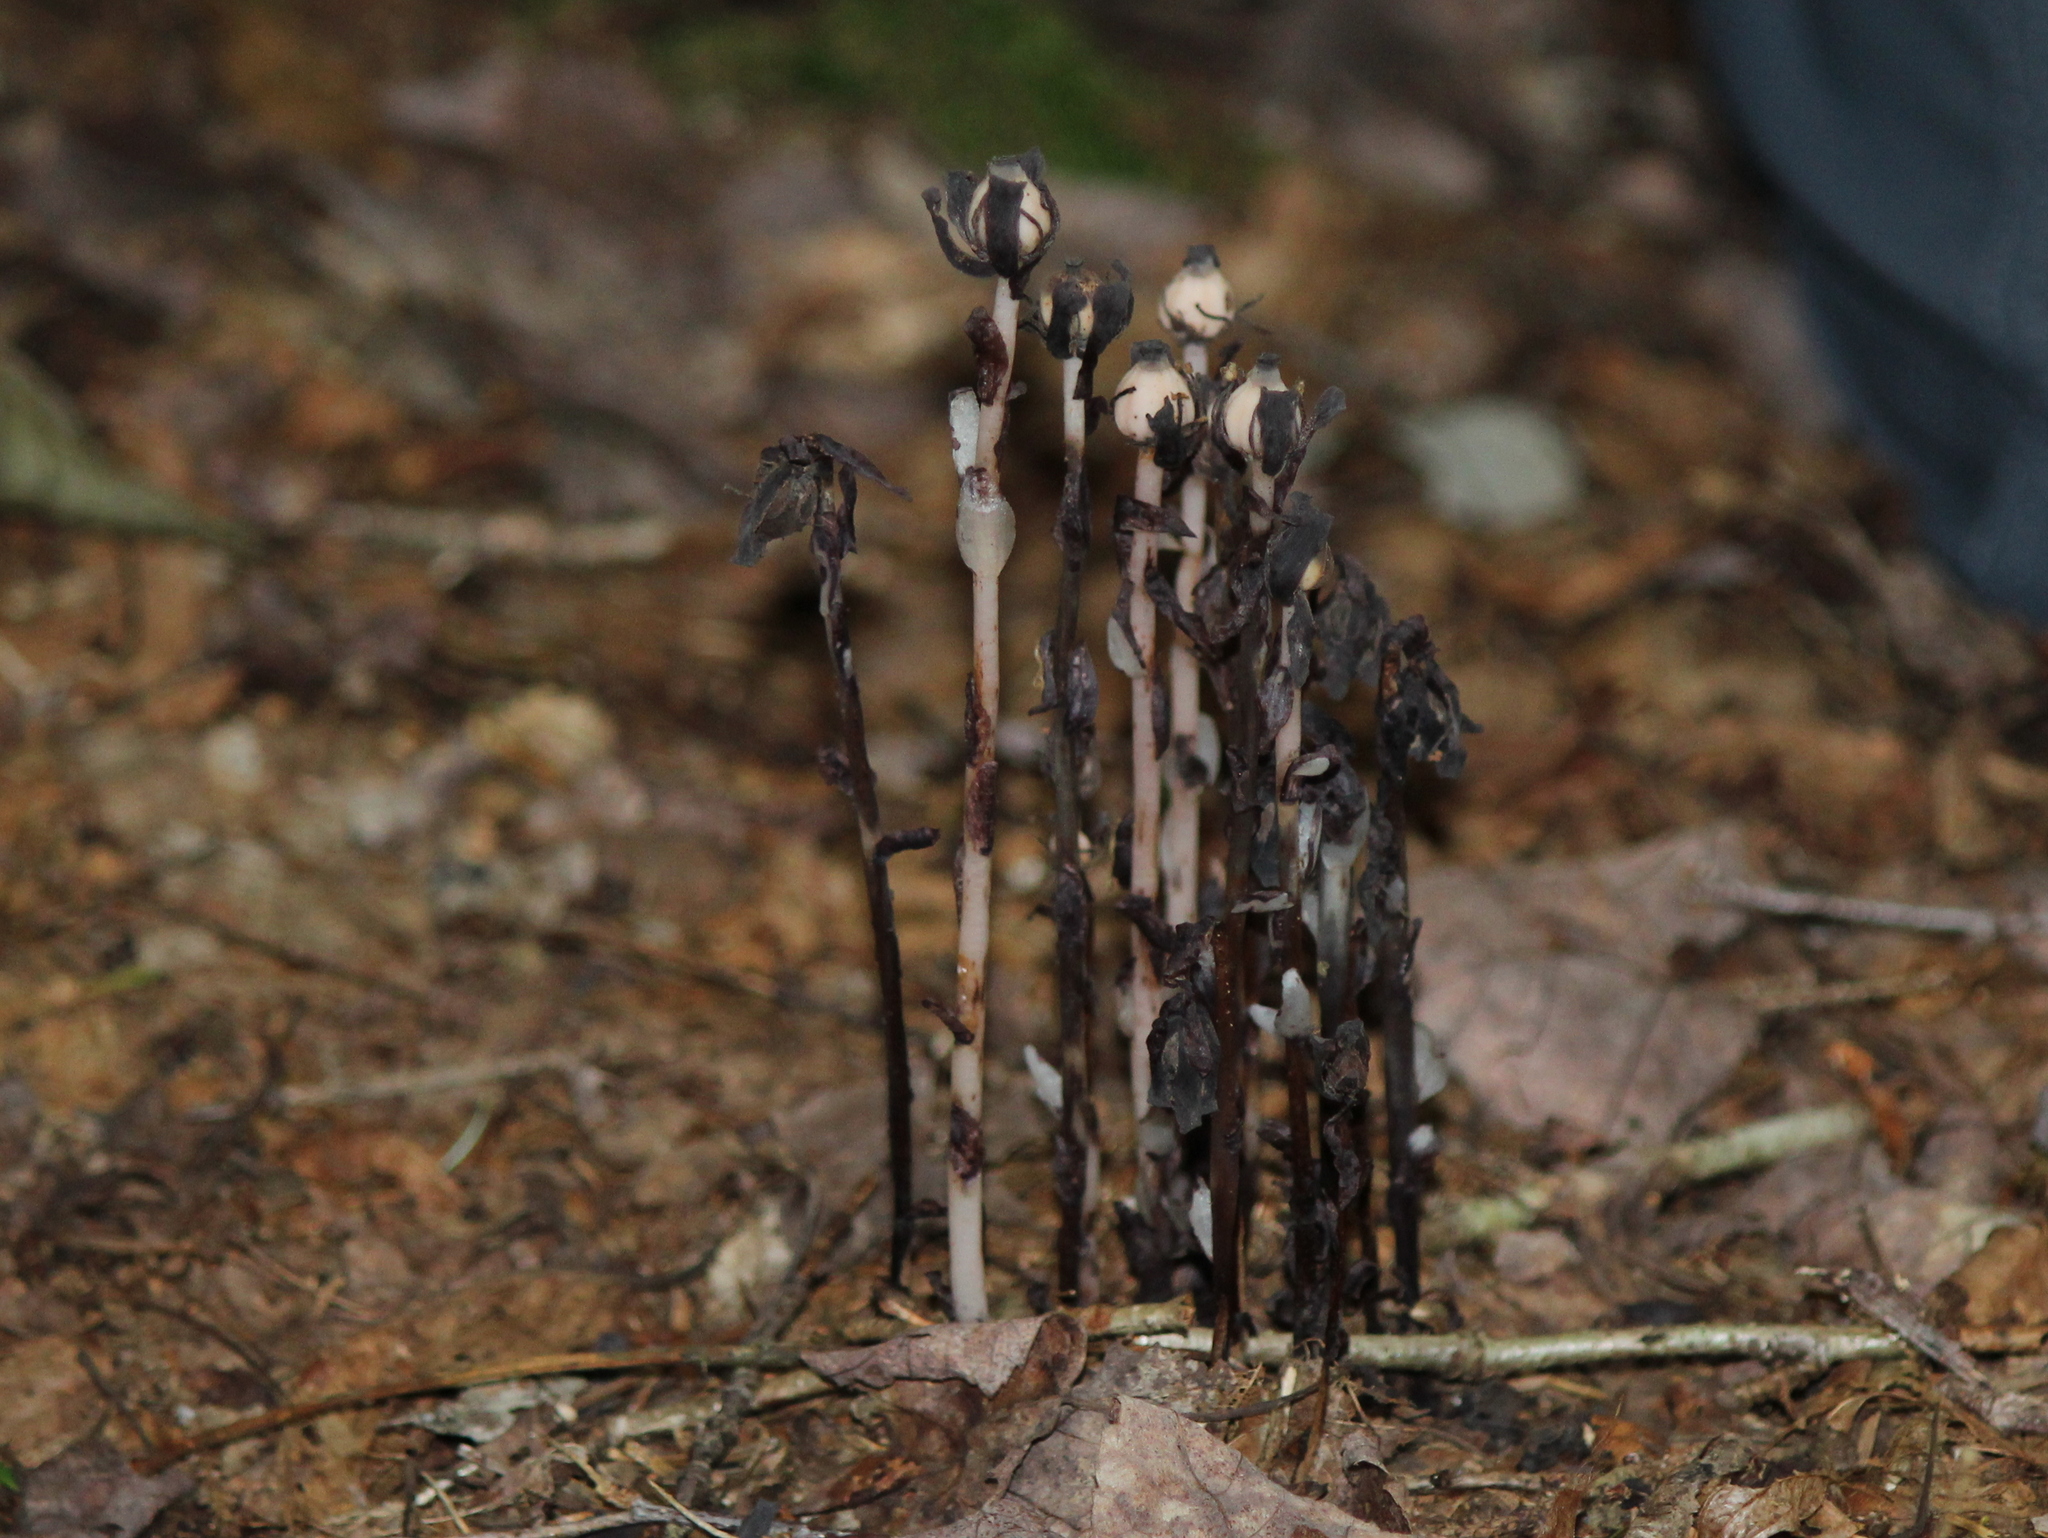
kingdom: Plantae
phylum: Tracheophyta
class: Magnoliopsida
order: Ericales
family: Ericaceae
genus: Monotropa
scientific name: Monotropa uniflora
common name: Convulsion root
